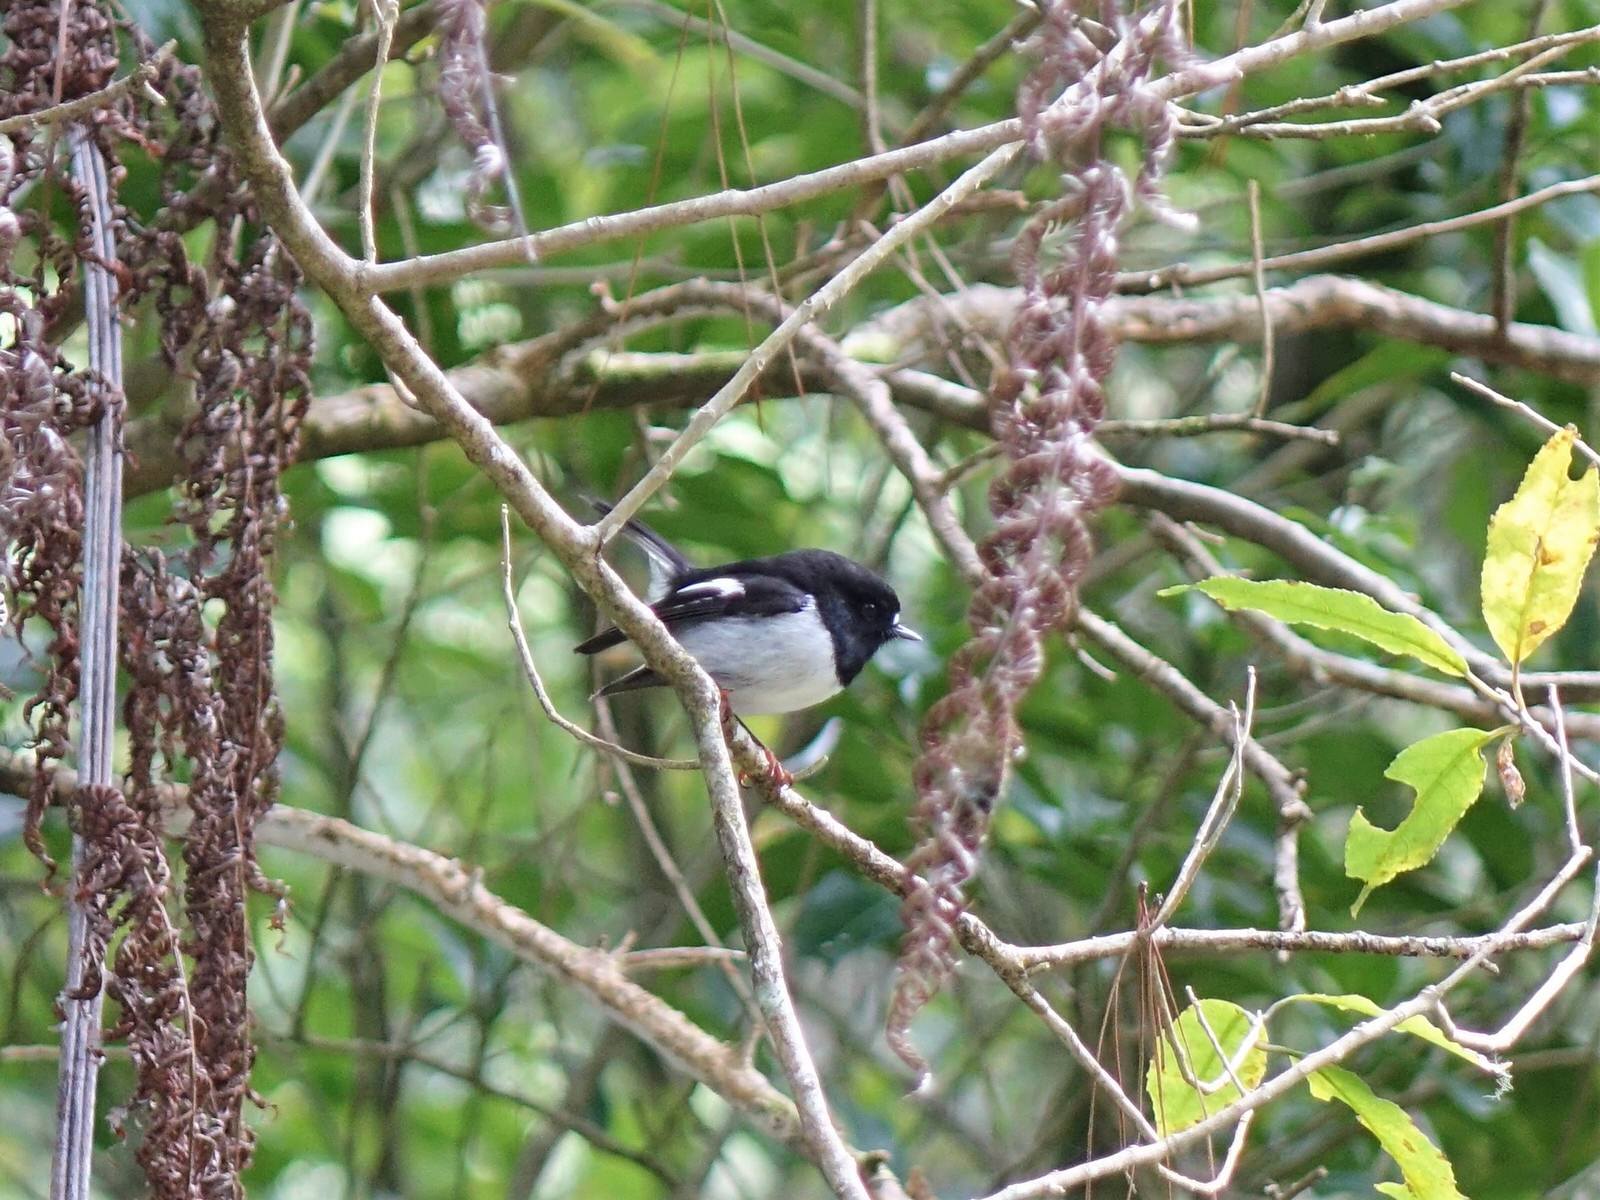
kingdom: Animalia
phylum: Chordata
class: Aves
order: Passeriformes
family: Petroicidae
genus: Petroica
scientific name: Petroica macrocephala
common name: Tomtit
